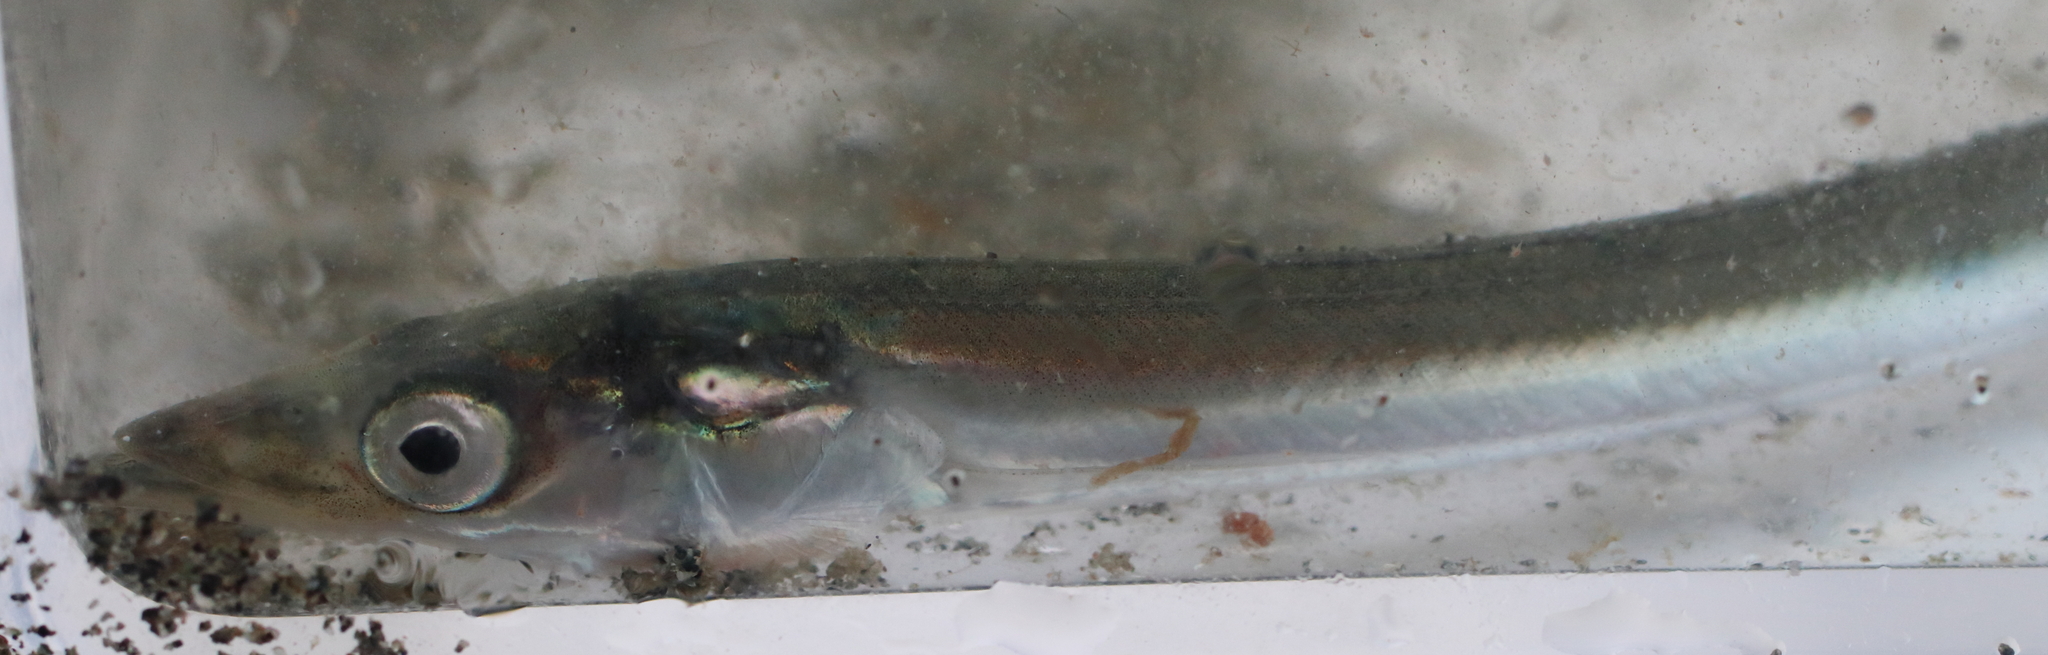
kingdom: Animalia
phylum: Chordata
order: Perciformes
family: Ammodytidae
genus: Ammodytes
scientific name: Ammodytes personatus
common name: Japanese sand lance
